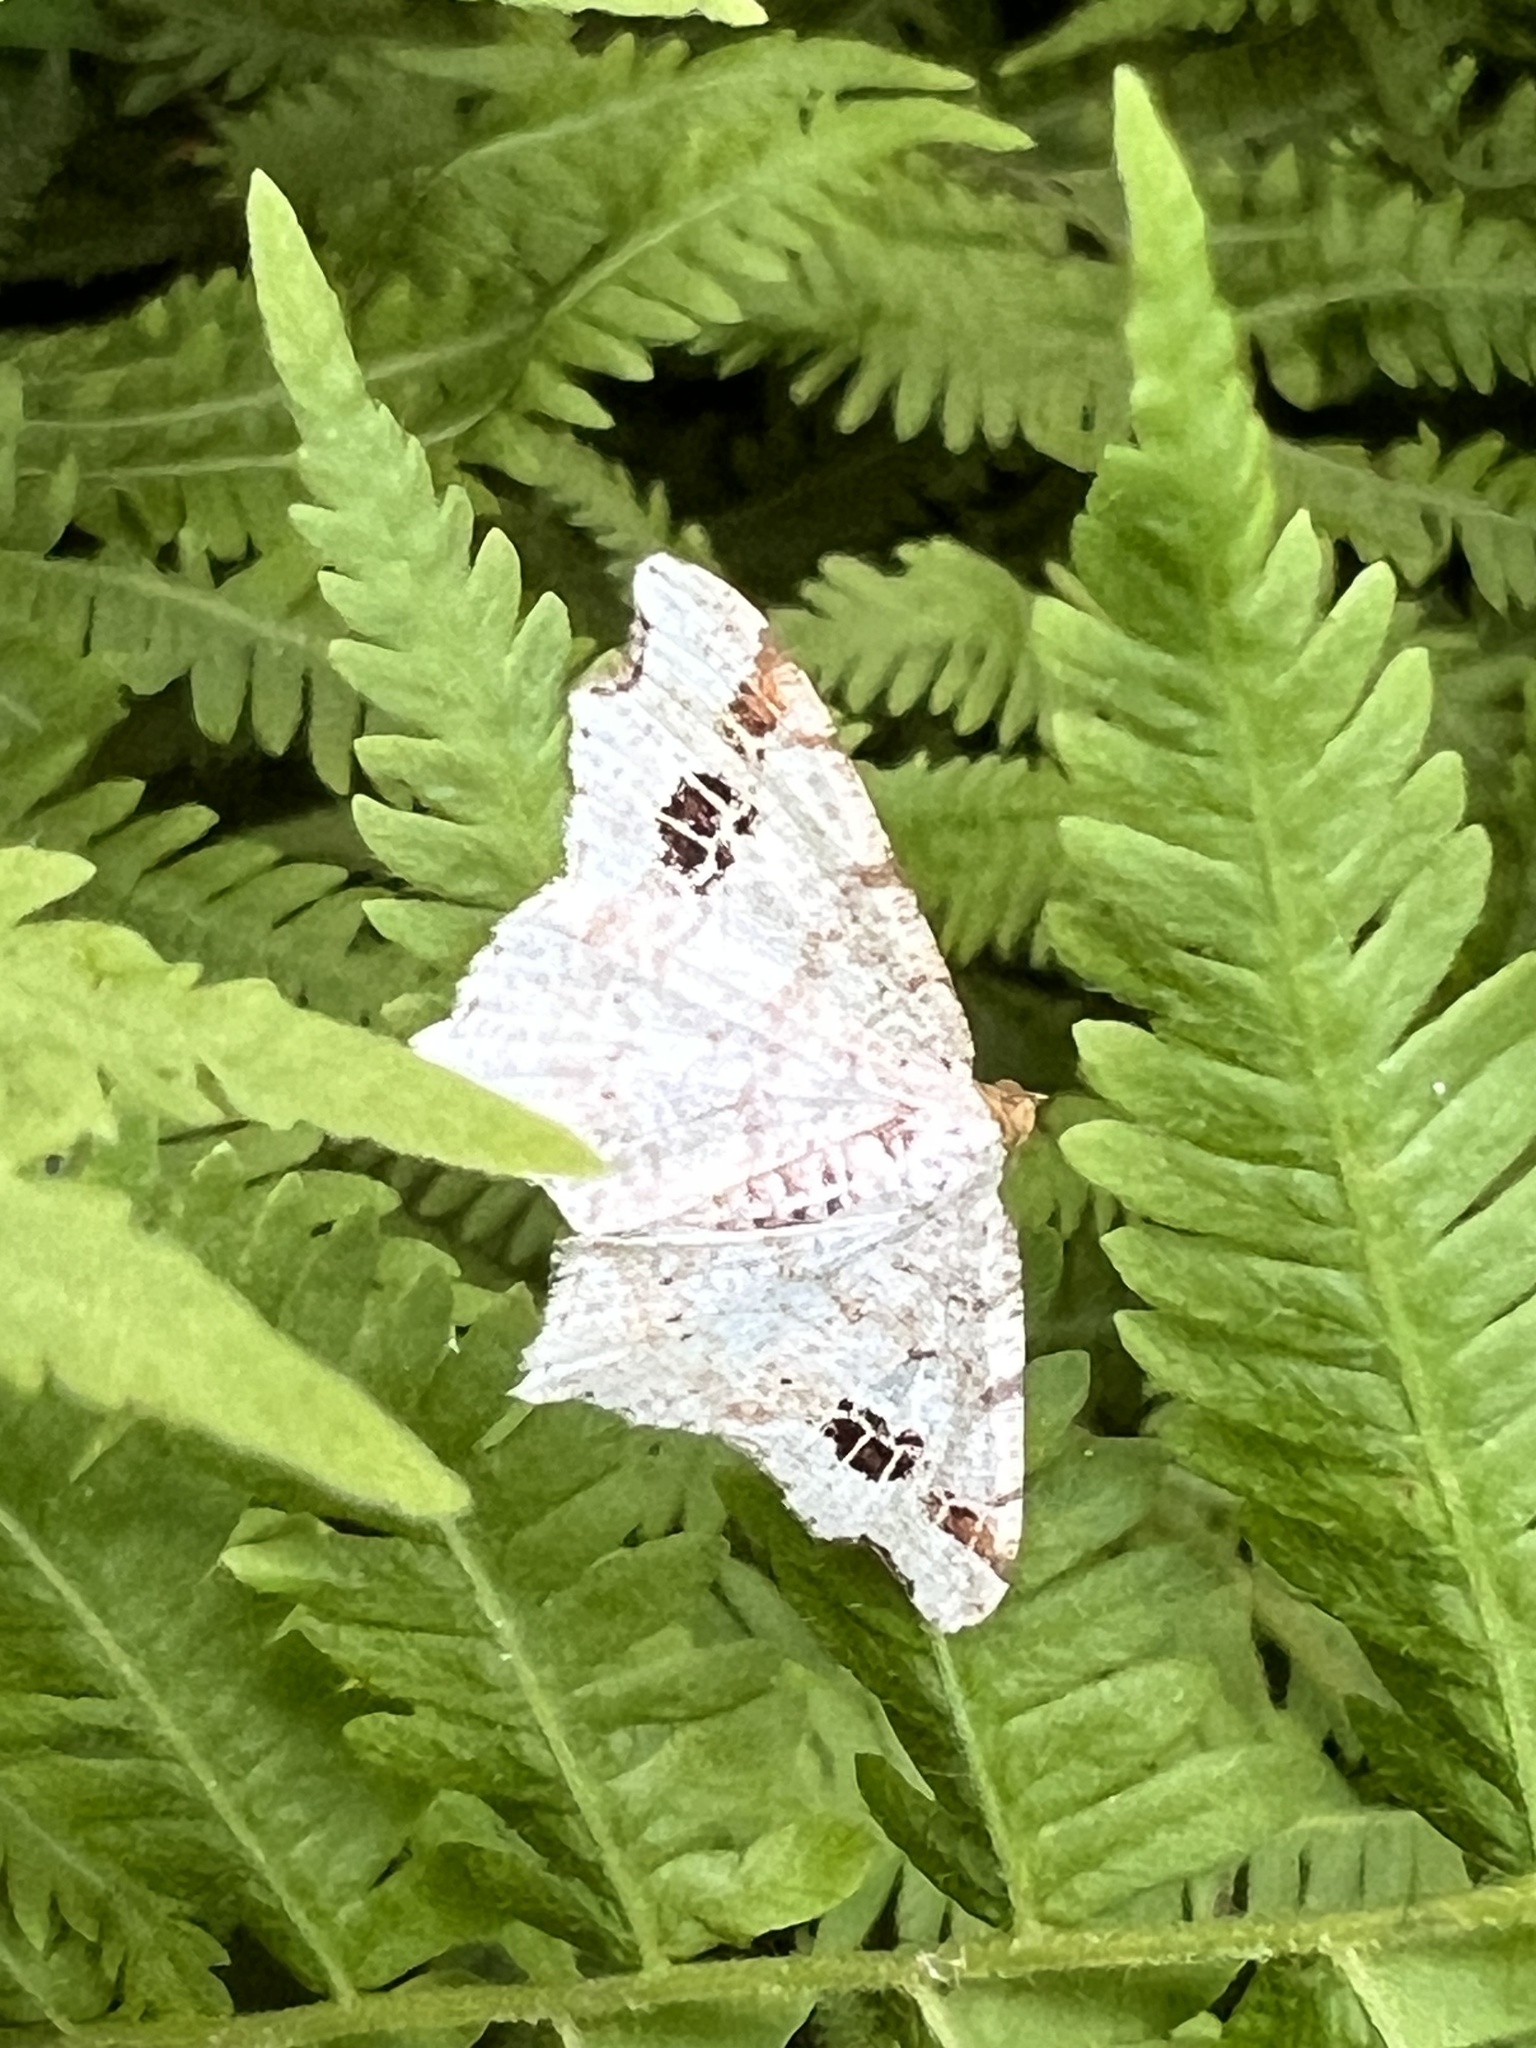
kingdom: Animalia
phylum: Arthropoda
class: Insecta
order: Lepidoptera
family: Geometridae
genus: Macaria
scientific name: Macaria aemulataria
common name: Common angle
